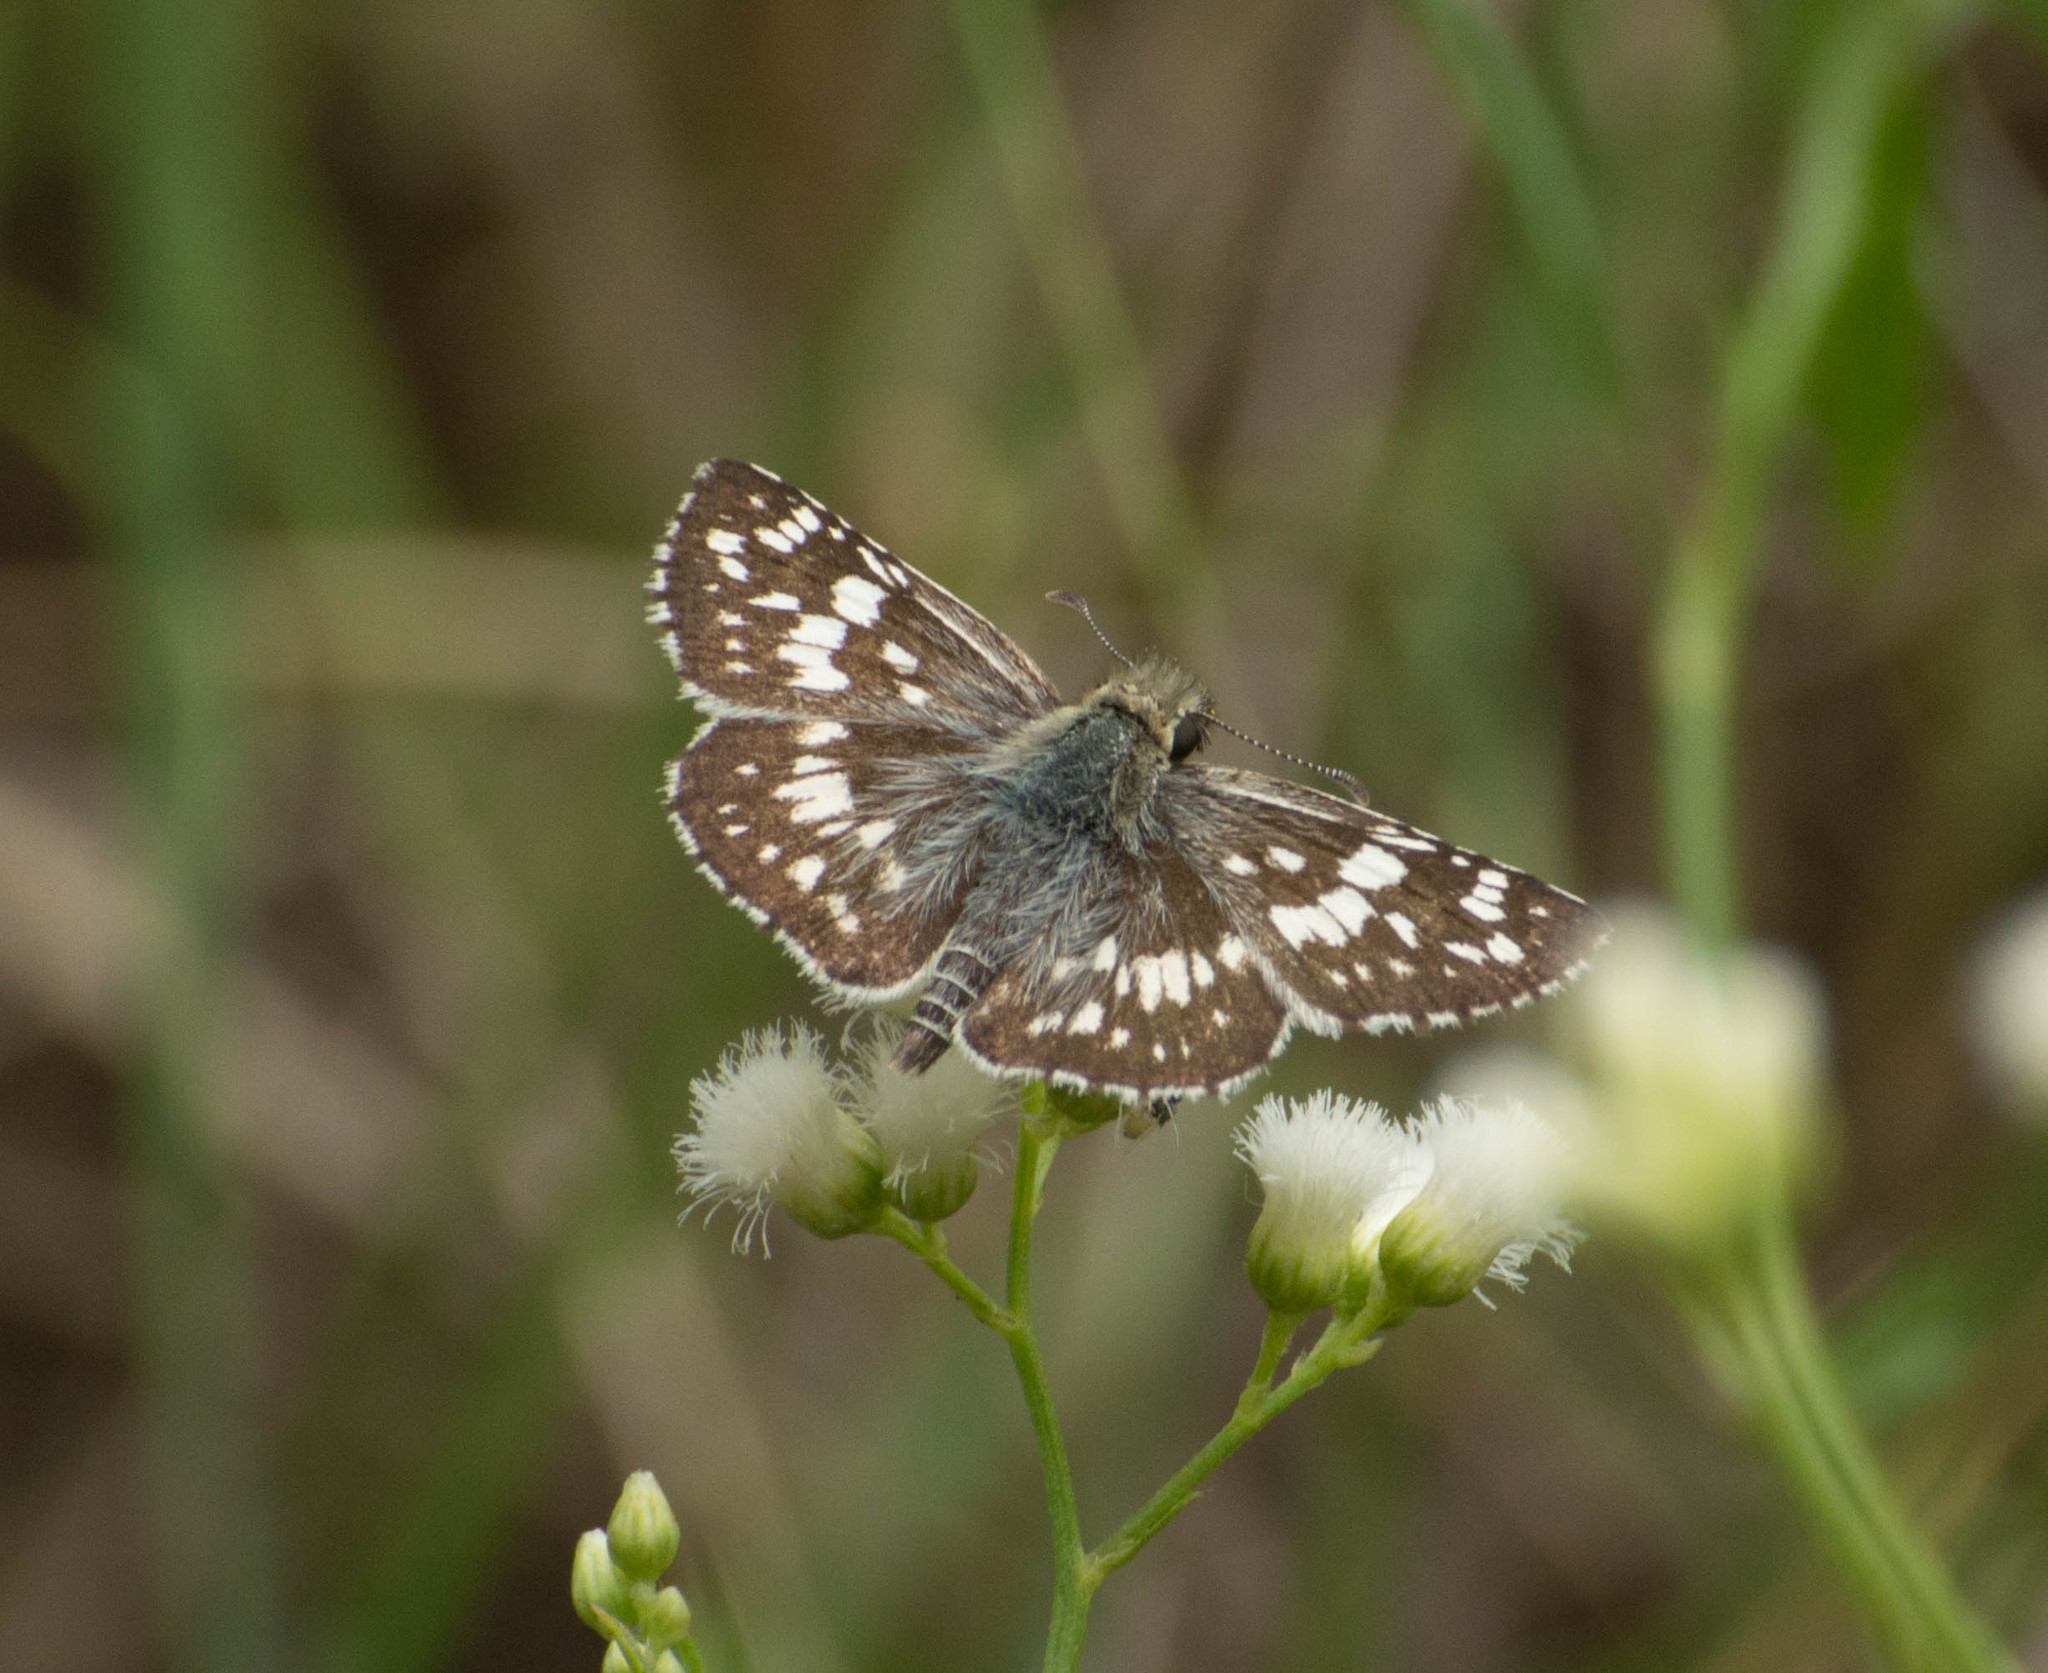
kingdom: Animalia
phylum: Arthropoda
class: Insecta
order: Lepidoptera
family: Hesperiidae
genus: Burnsius
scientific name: Burnsius orcynoides
